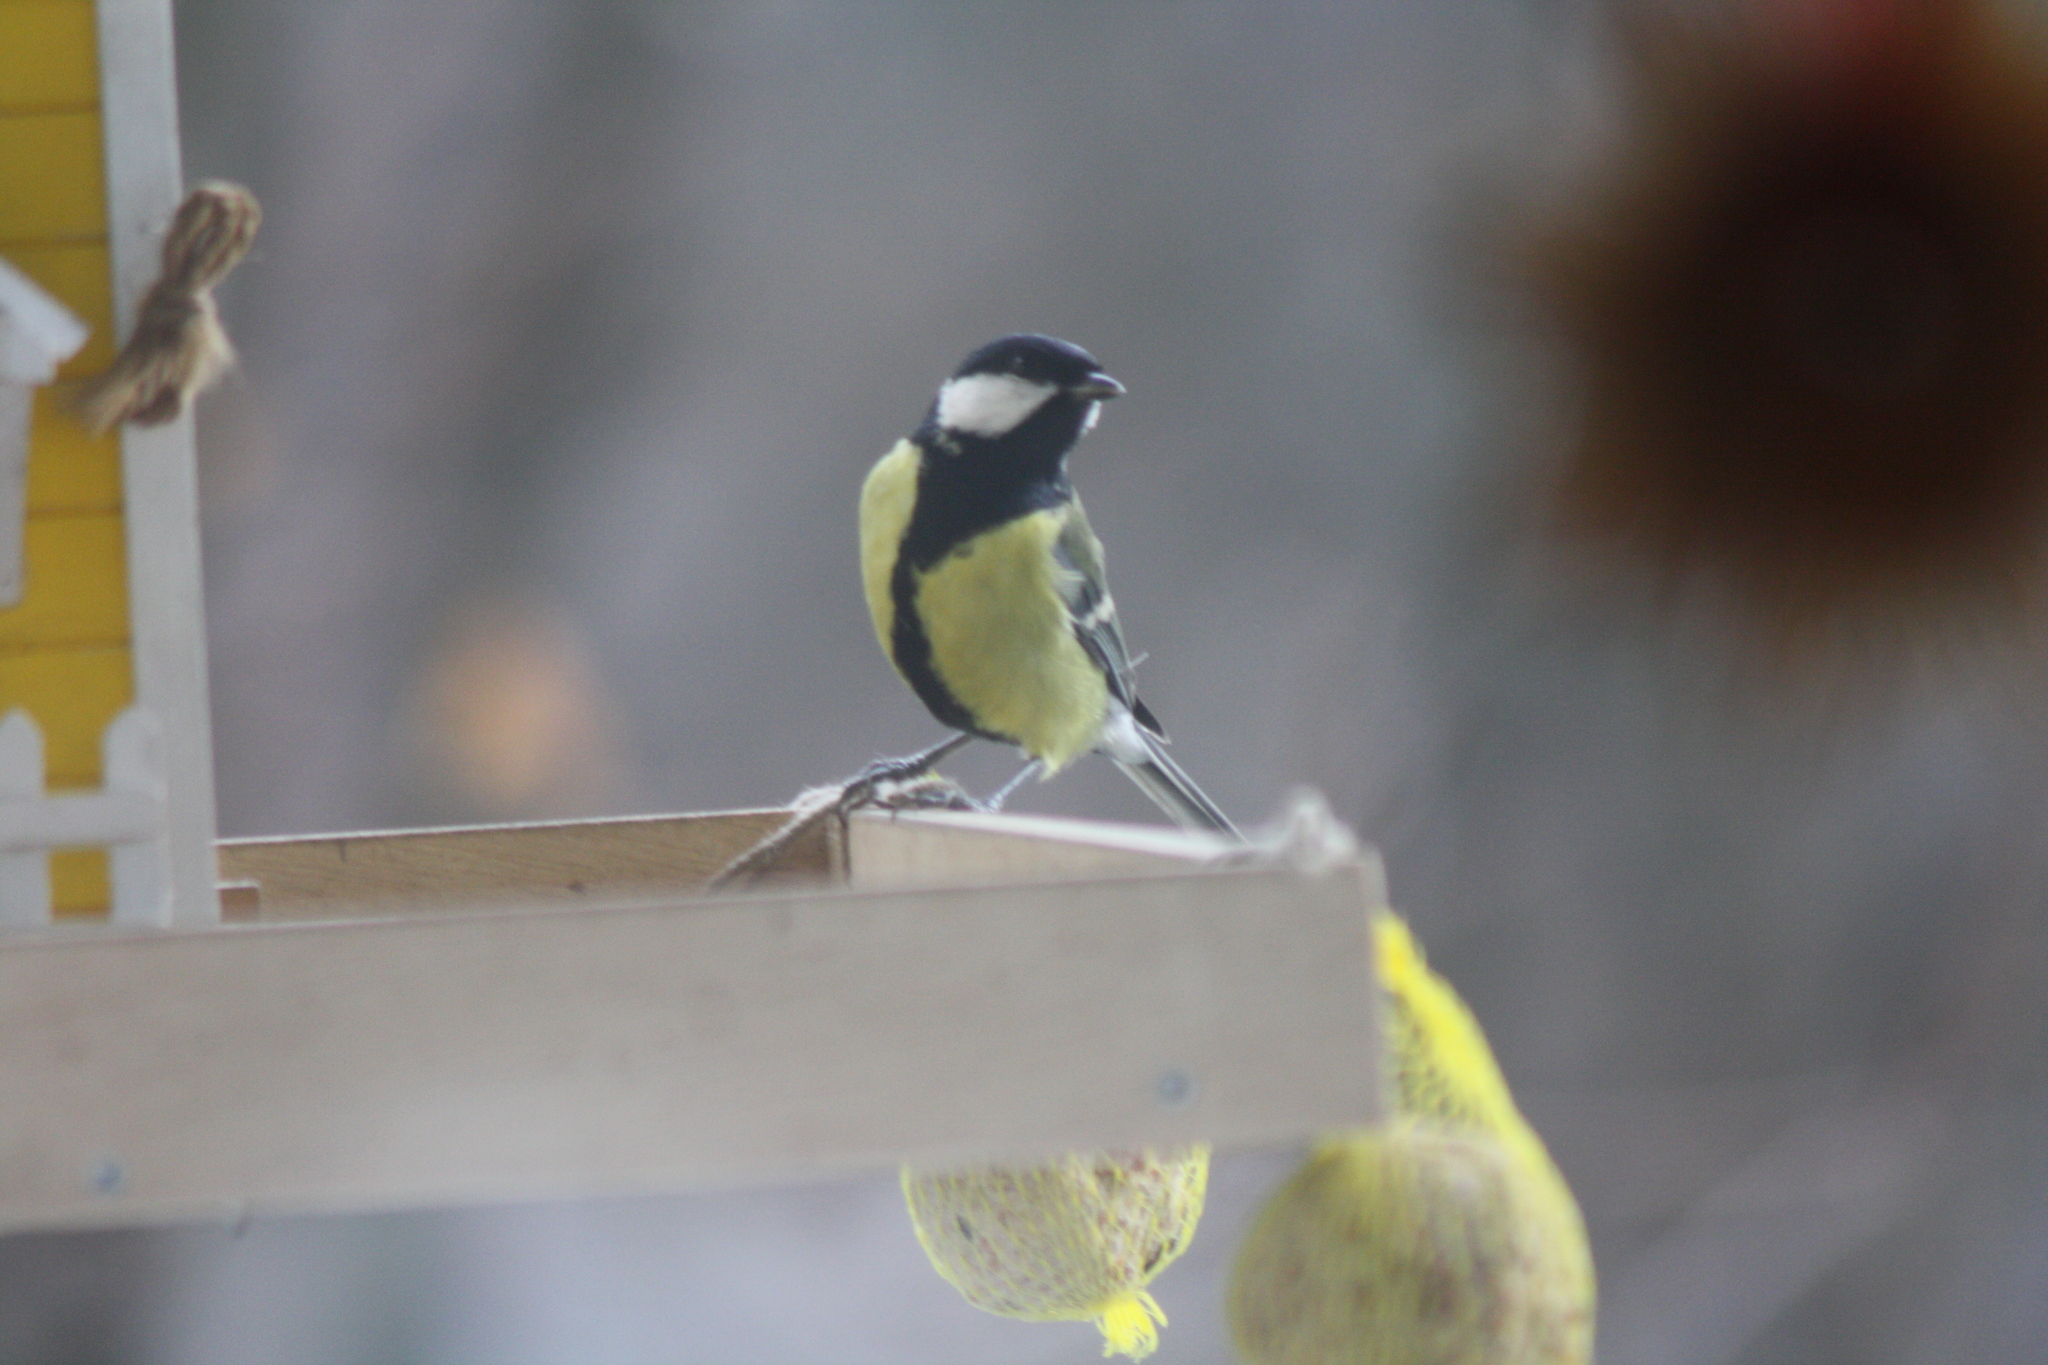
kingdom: Animalia
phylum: Chordata
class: Aves
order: Passeriformes
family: Paridae
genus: Parus
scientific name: Parus major
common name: Great tit
